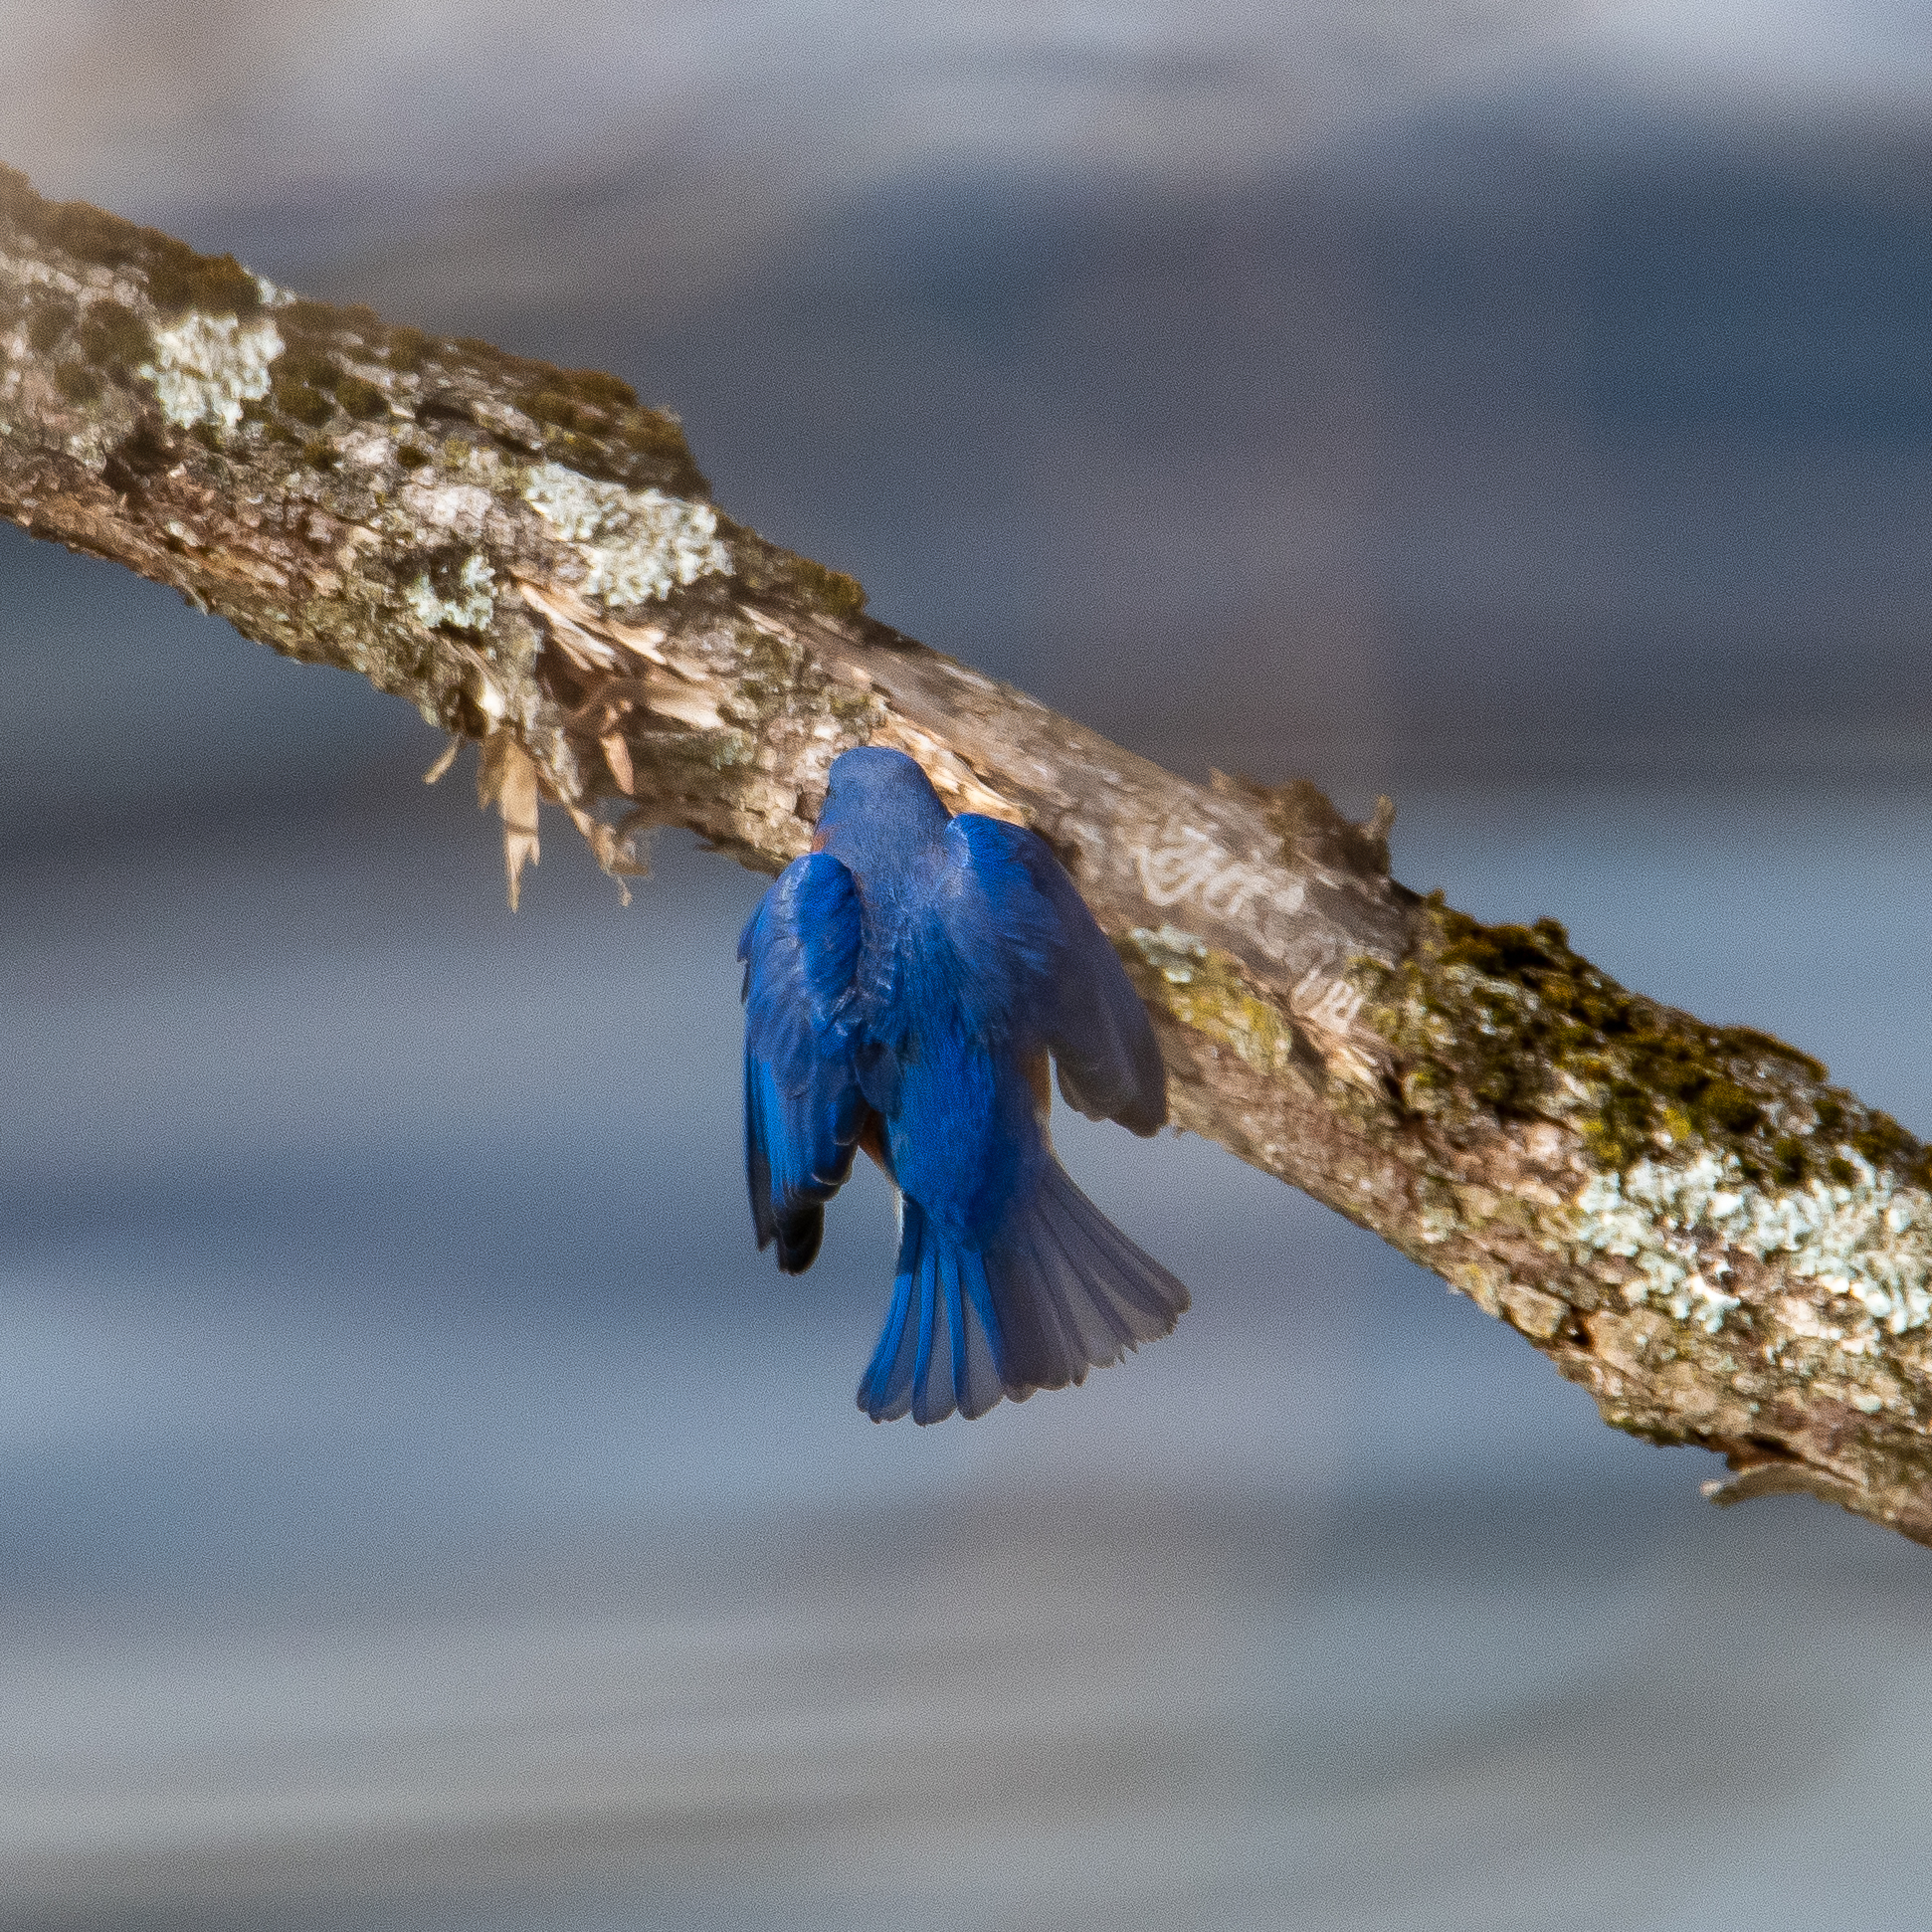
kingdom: Animalia
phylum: Chordata
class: Aves
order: Passeriformes
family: Turdidae
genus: Sialia
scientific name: Sialia sialis
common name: Eastern bluebird
